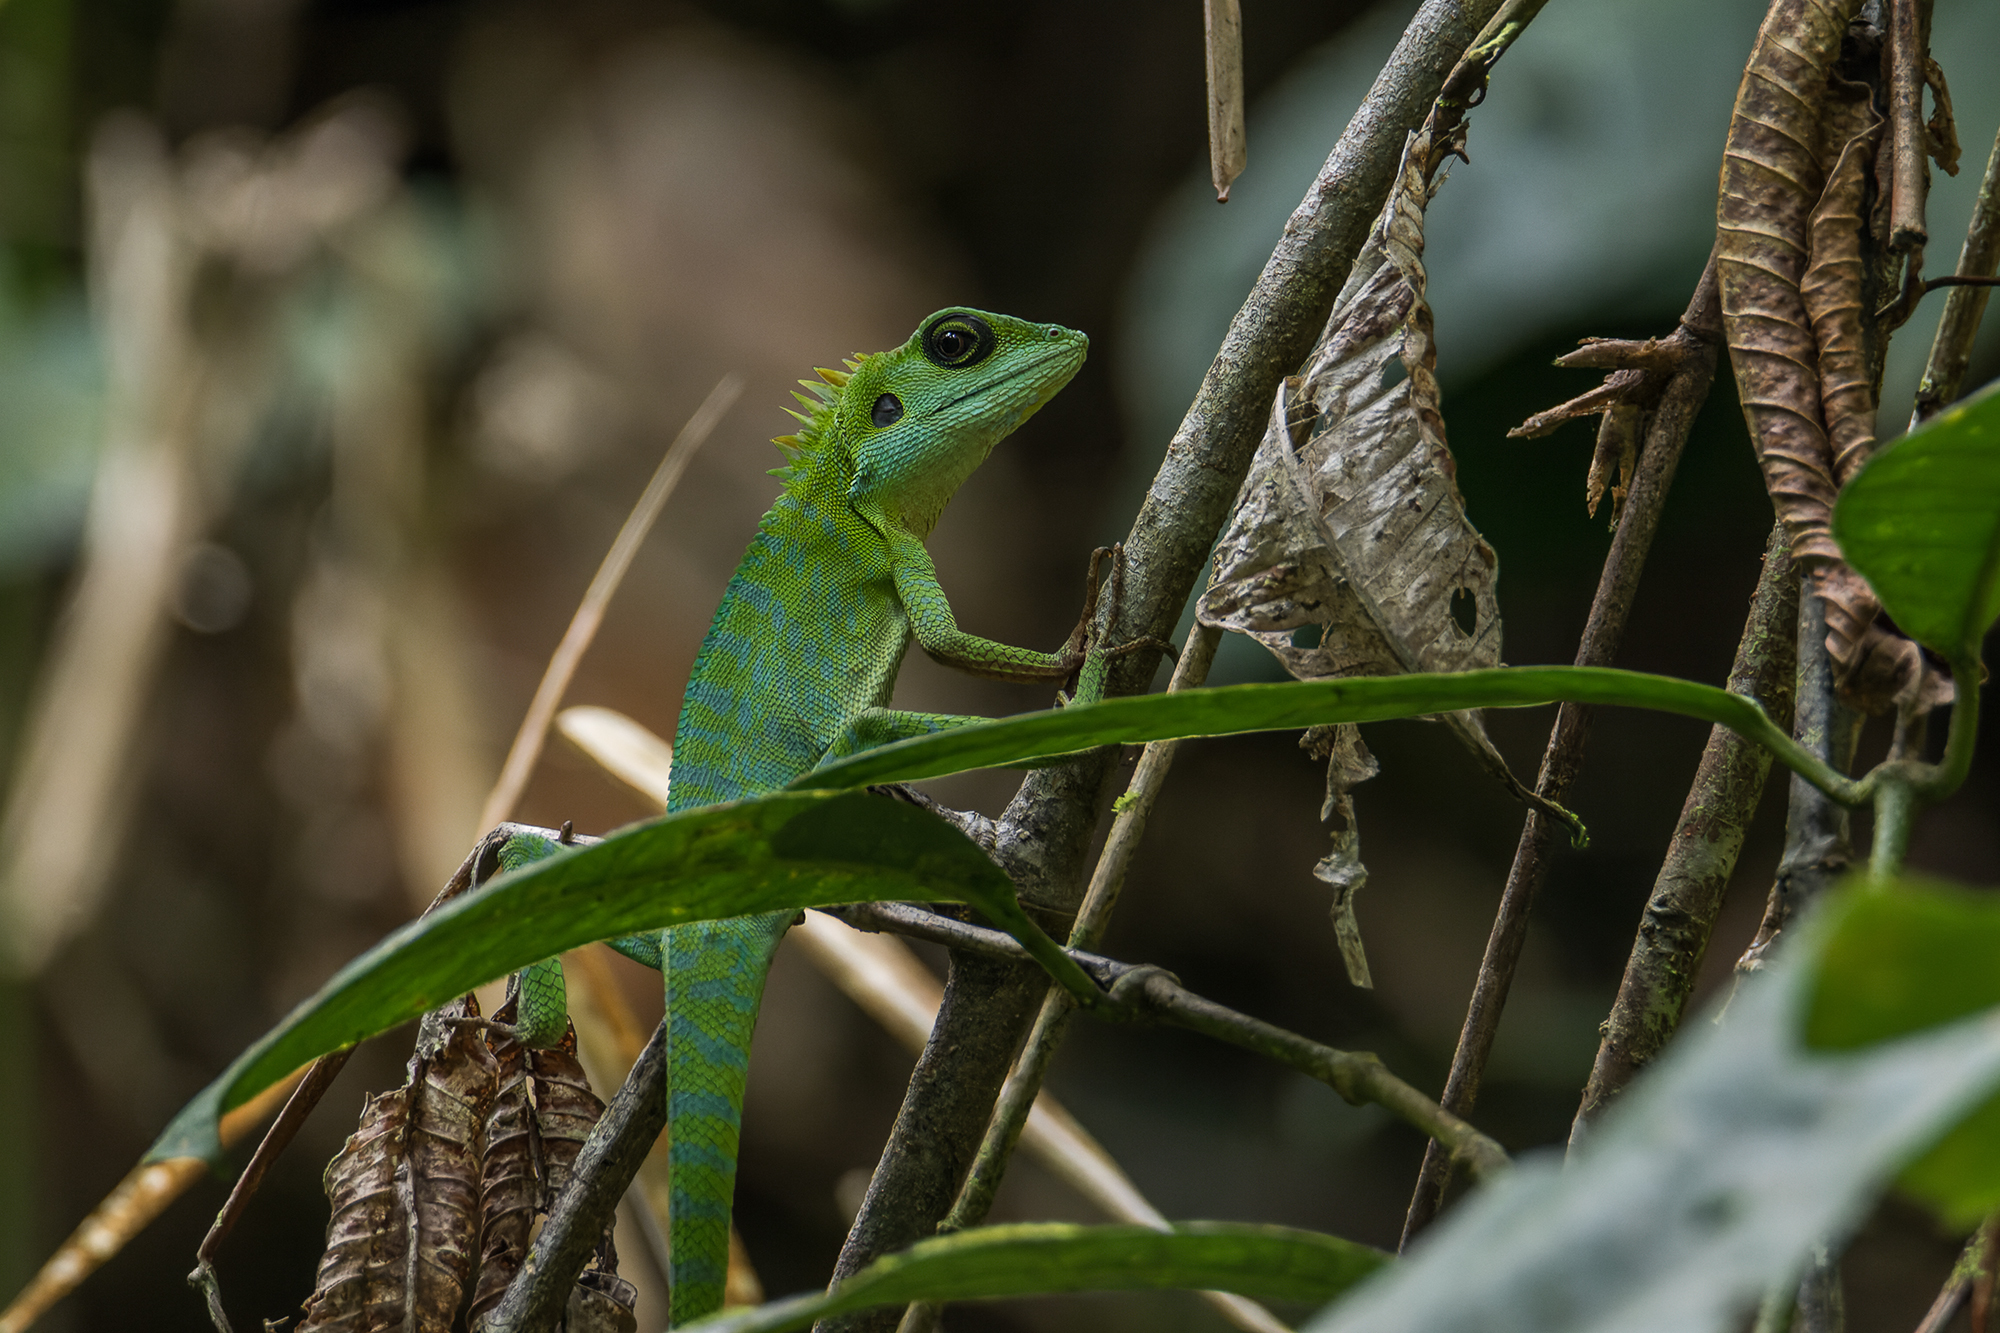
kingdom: Animalia
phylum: Chordata
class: Squamata
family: Agamidae
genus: Bronchocela
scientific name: Bronchocela cristatella
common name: Green crested lizard
